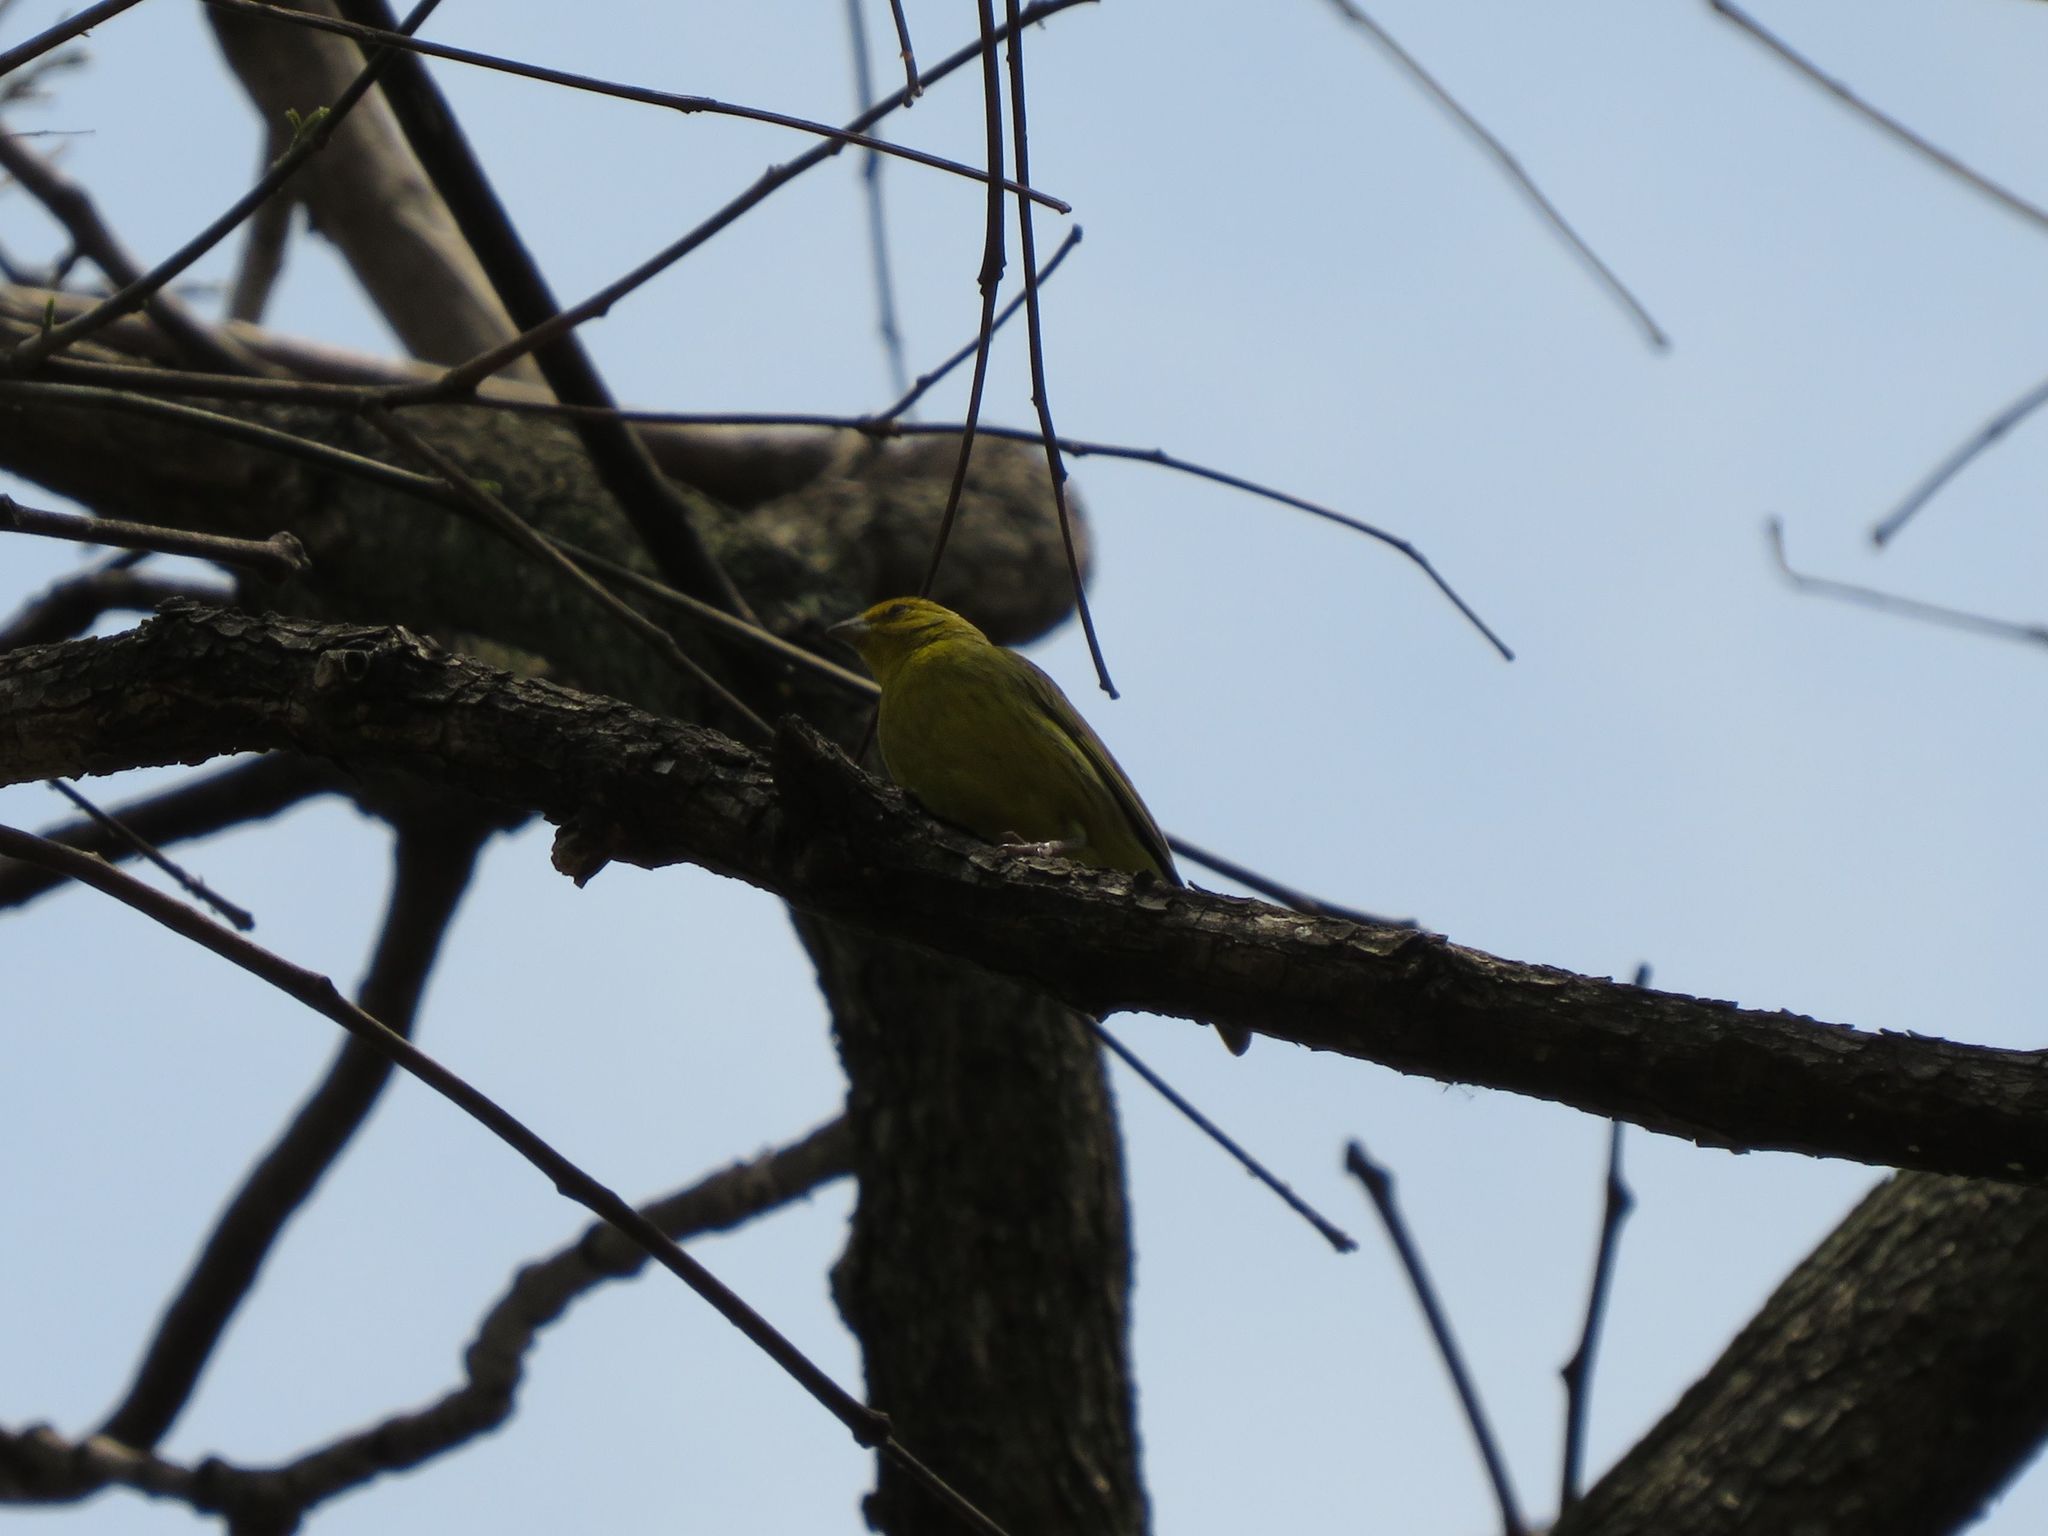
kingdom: Animalia
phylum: Chordata
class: Aves
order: Passeriformes
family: Thraupidae
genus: Sicalis
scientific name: Sicalis flaveola
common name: Saffron finch
